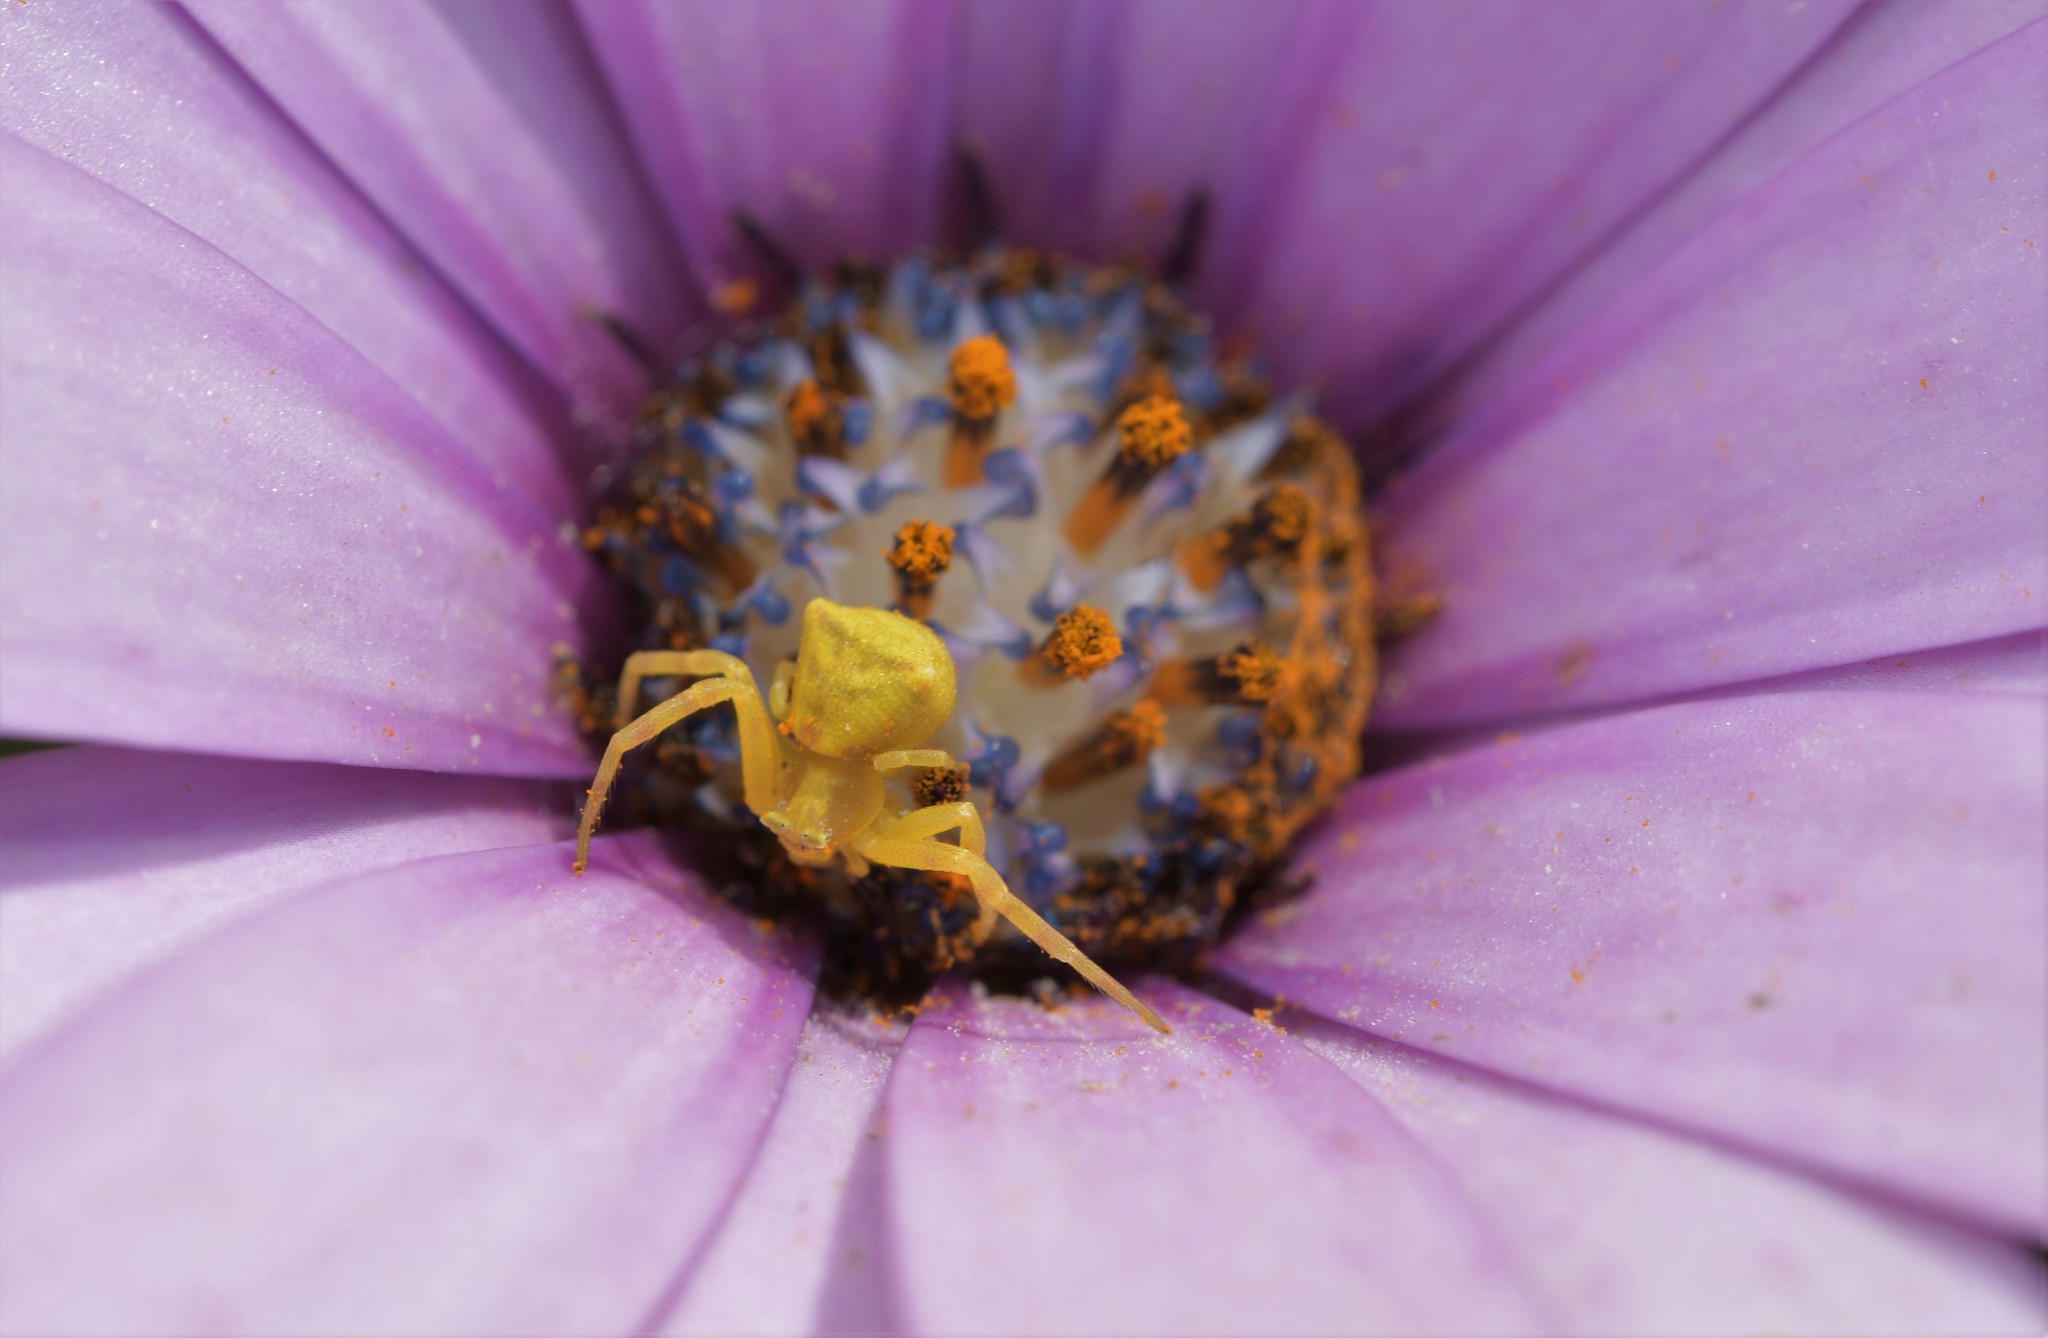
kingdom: Animalia
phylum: Arthropoda
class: Arachnida
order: Araneae
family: Thomisidae
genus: Thomisus
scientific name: Thomisus onustus
